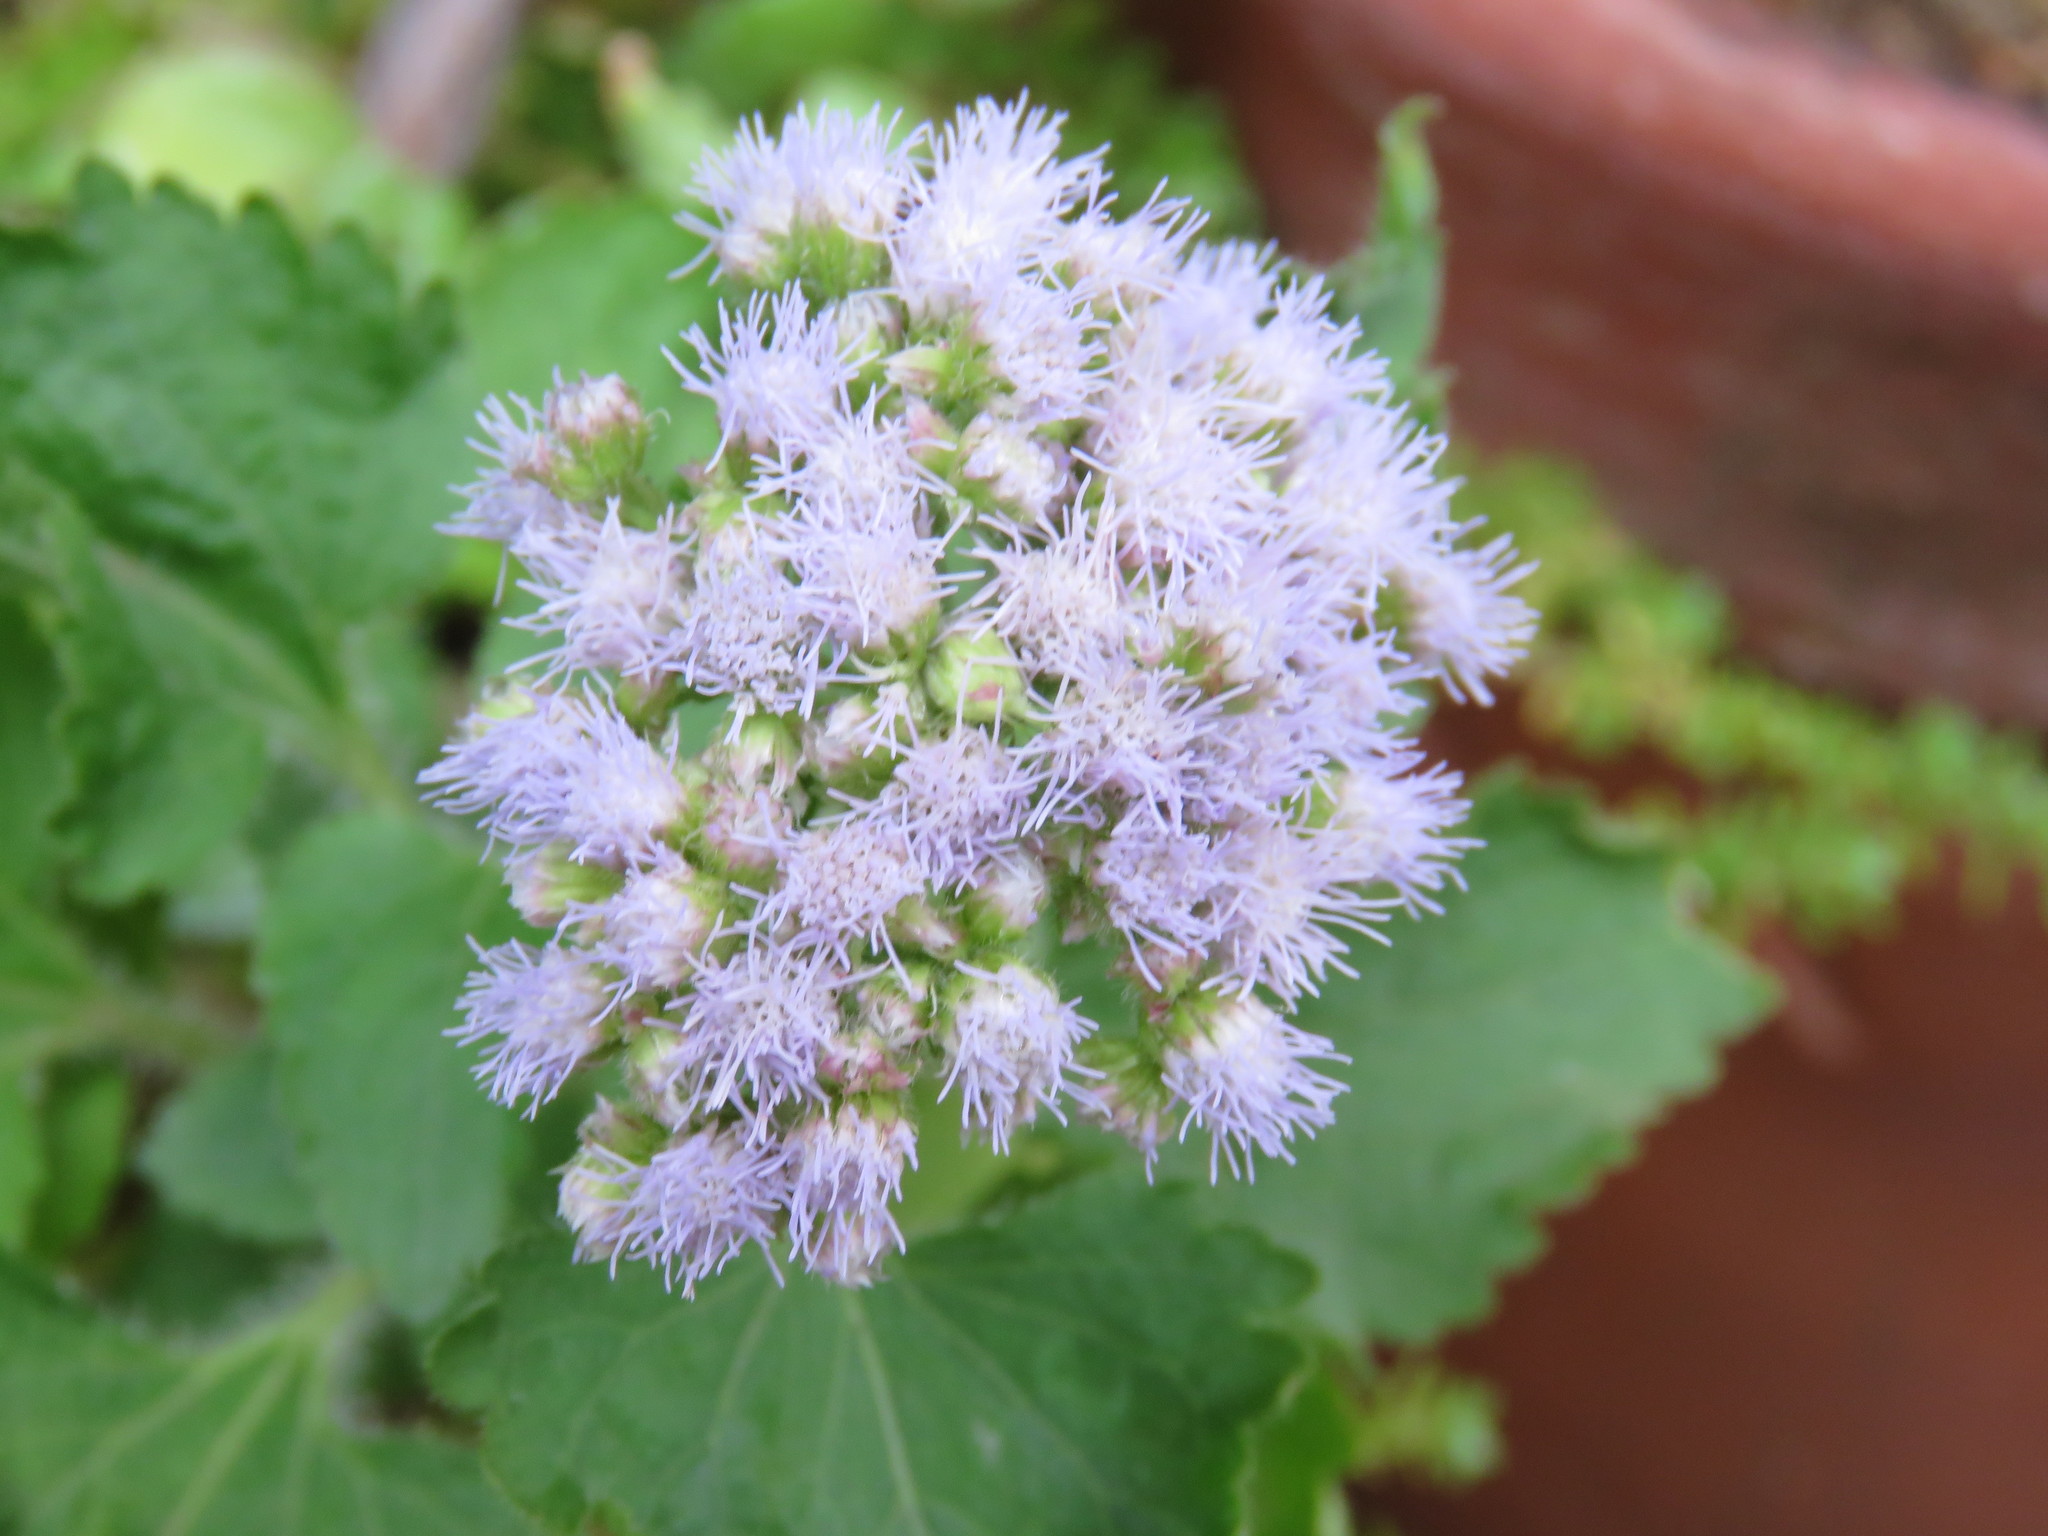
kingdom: Plantae
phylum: Tracheophyta
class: Magnoliopsida
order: Asterales
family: Asteraceae
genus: Ageratum
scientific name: Ageratum conyzoides
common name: Tropical whiteweed
